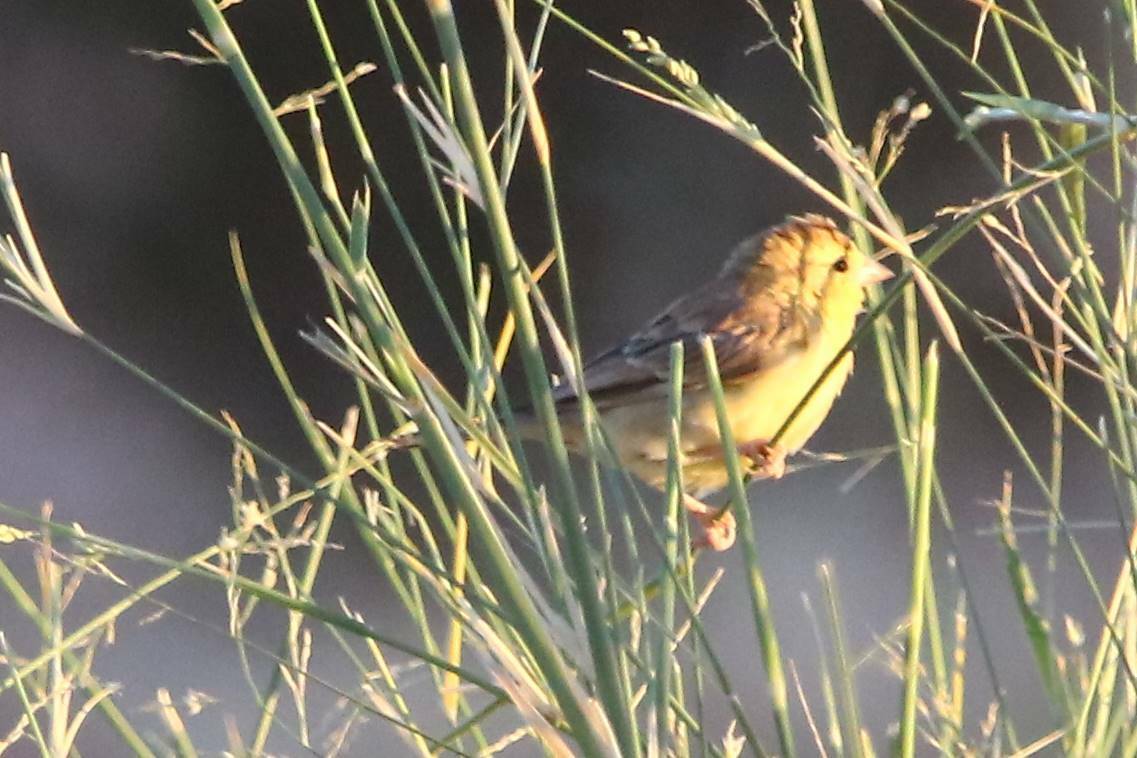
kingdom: Animalia
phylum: Chordata
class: Aves
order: Passeriformes
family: Passeridae
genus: Passer
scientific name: Passer luteus
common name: Sudan golden sparrow
